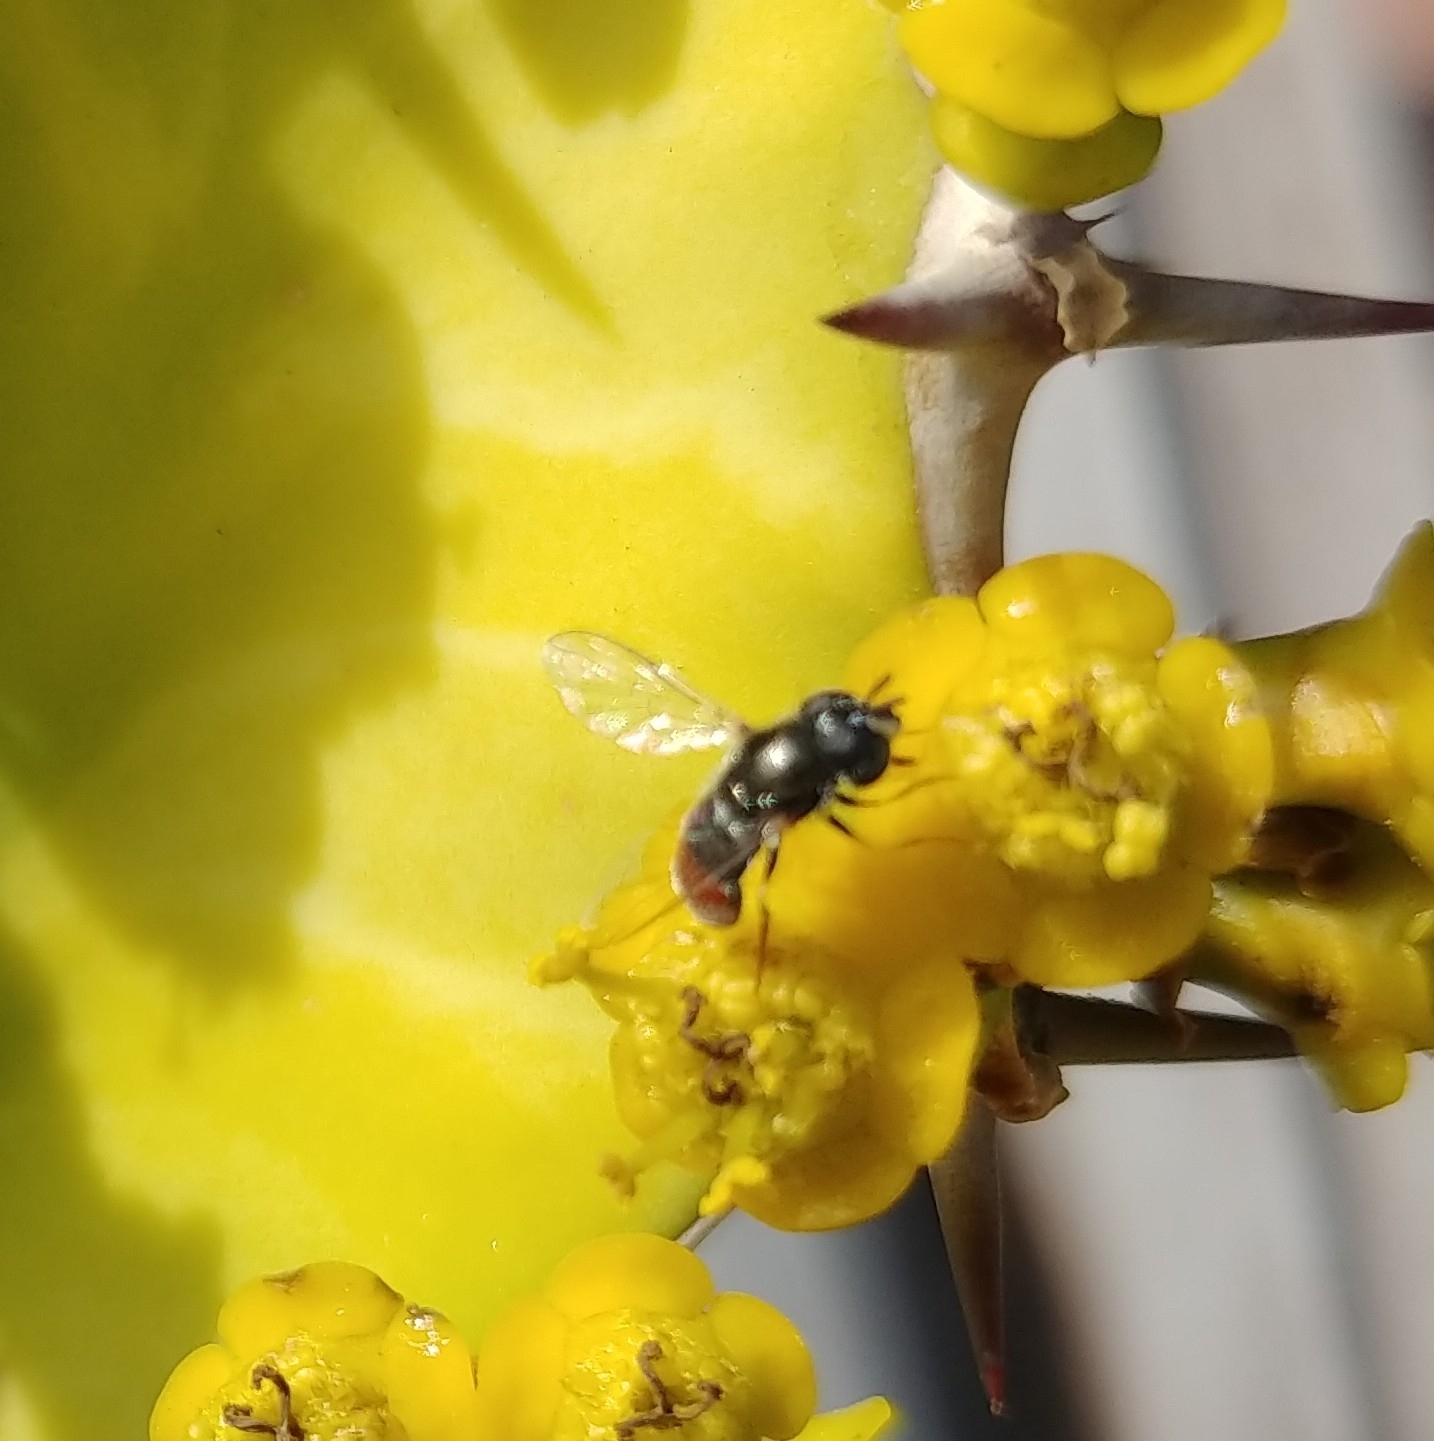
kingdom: Animalia
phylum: Arthropoda
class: Insecta
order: Diptera
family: Syrphidae
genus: Paragus
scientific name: Paragus haemorrhous
